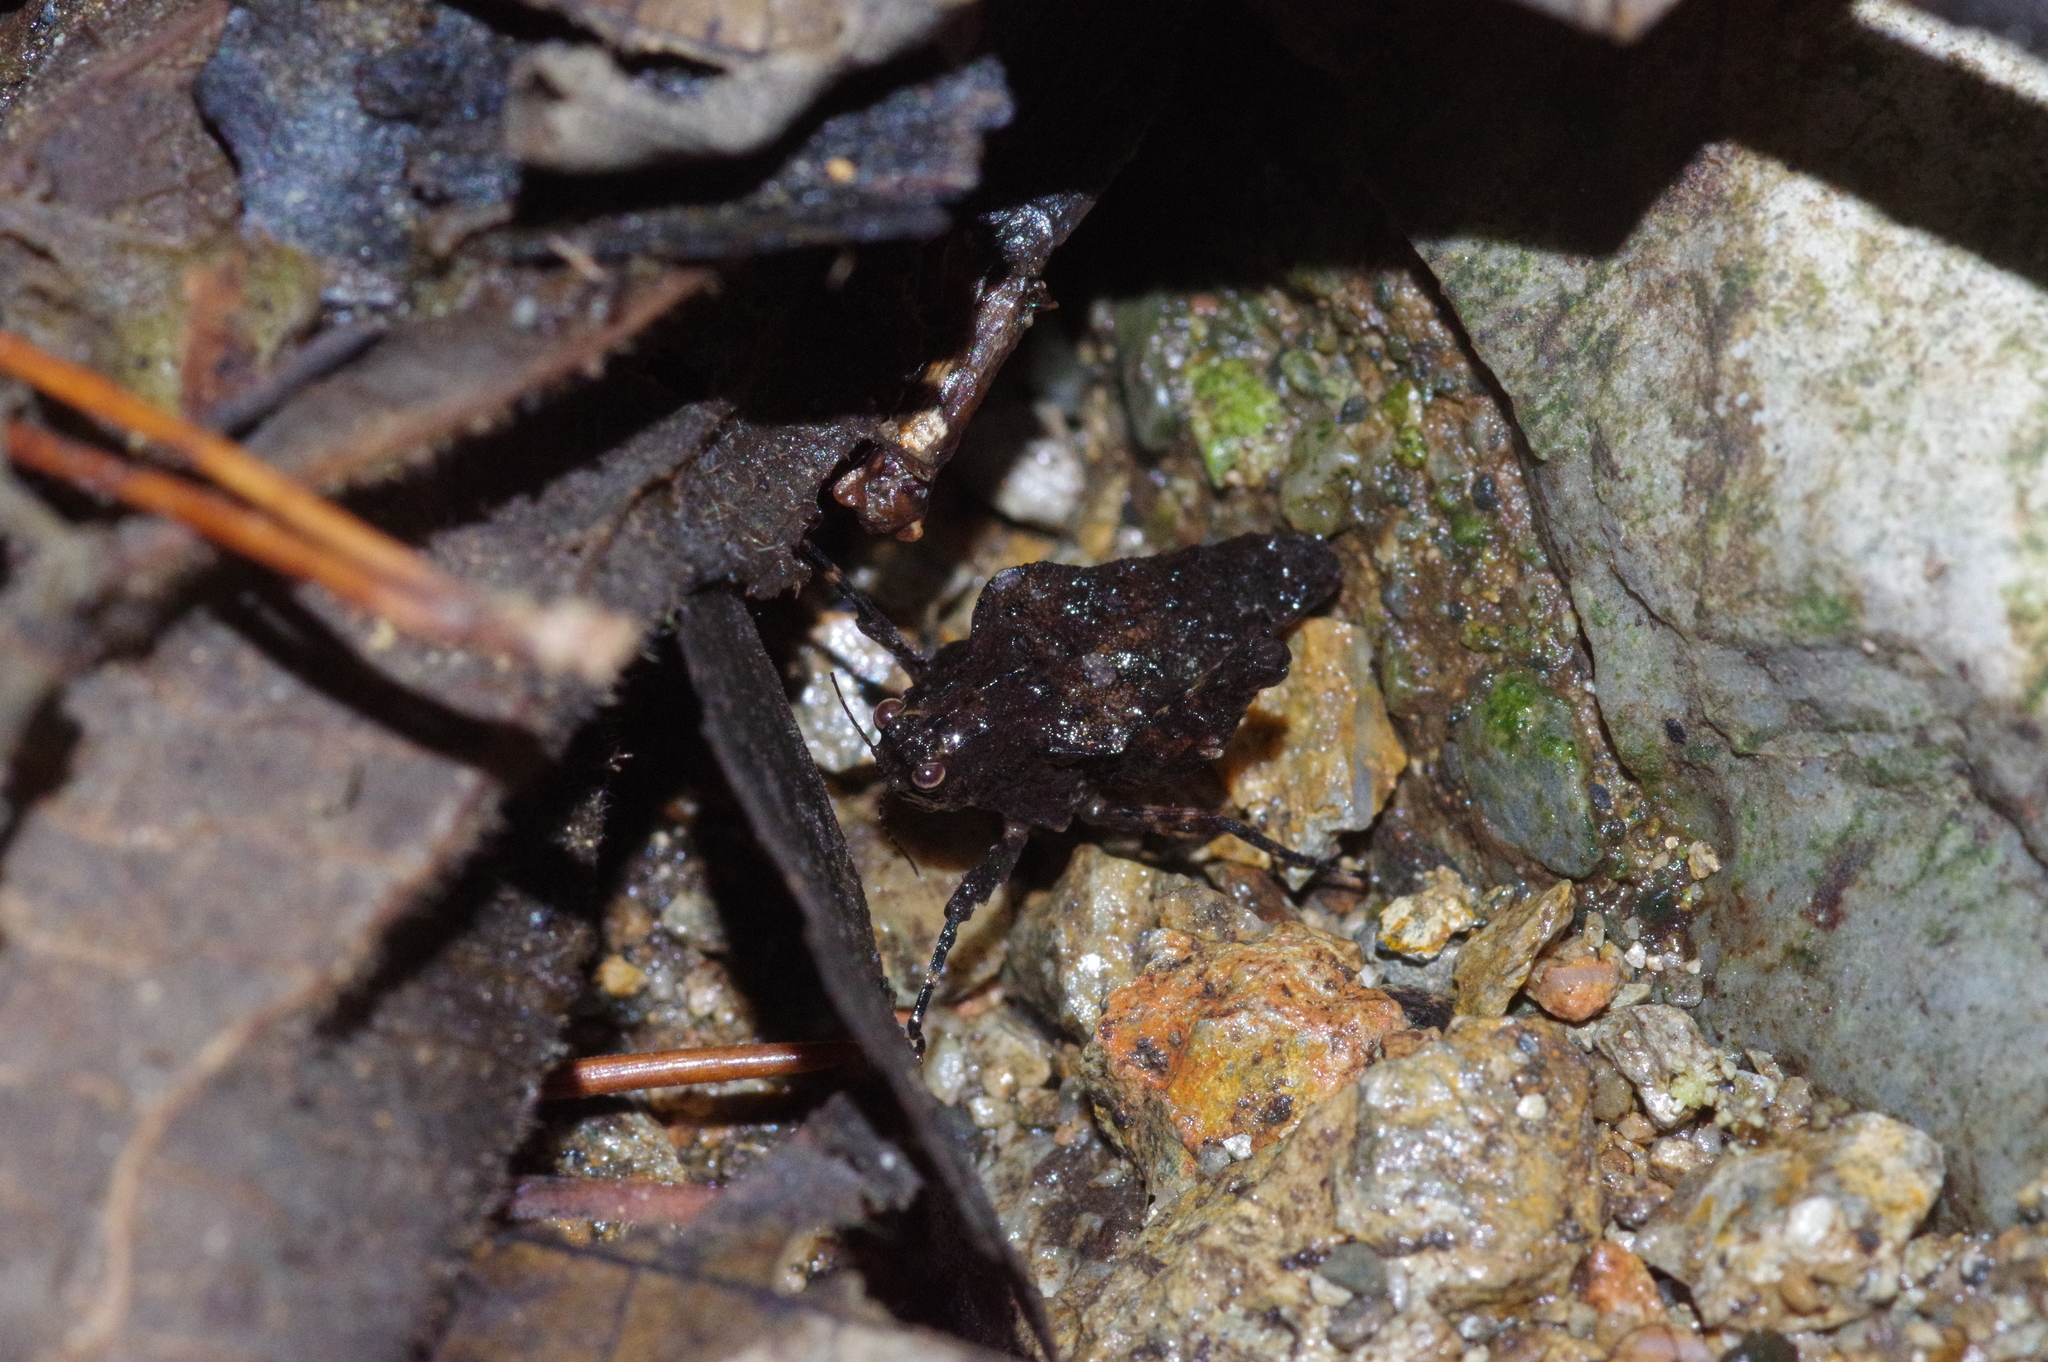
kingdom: Animalia
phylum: Arthropoda
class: Insecta
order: Orthoptera
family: Tetrigidae
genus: Austrohancockia
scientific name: Austrohancockia okinawensis
